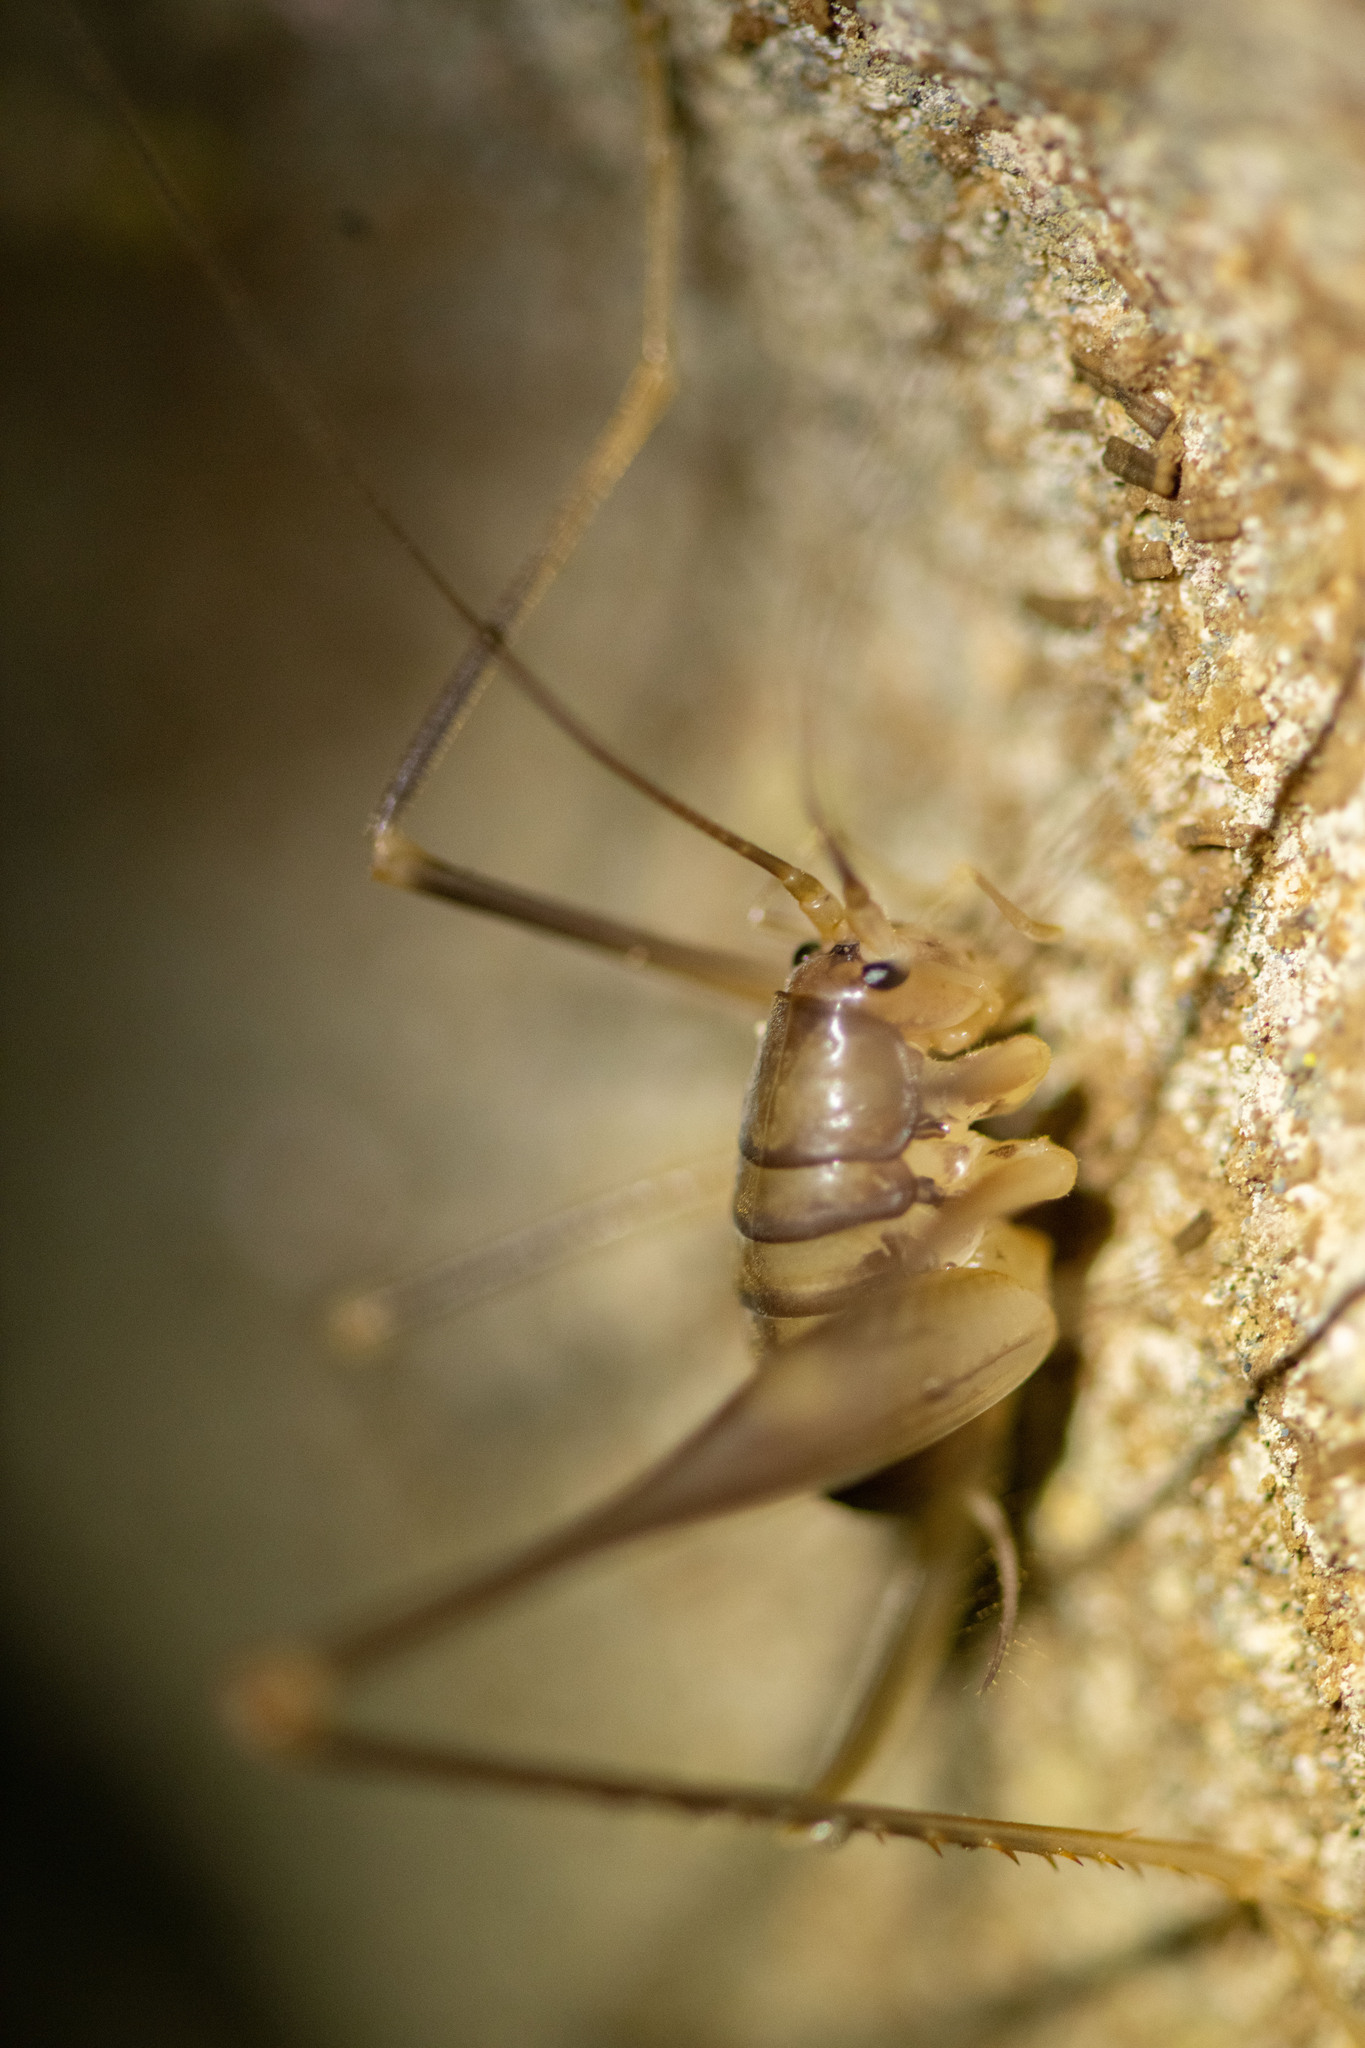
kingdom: Animalia
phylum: Arthropoda
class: Insecta
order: Orthoptera
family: Rhaphidophoridae
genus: Dolichopoda
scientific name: Dolichopoda euxina
